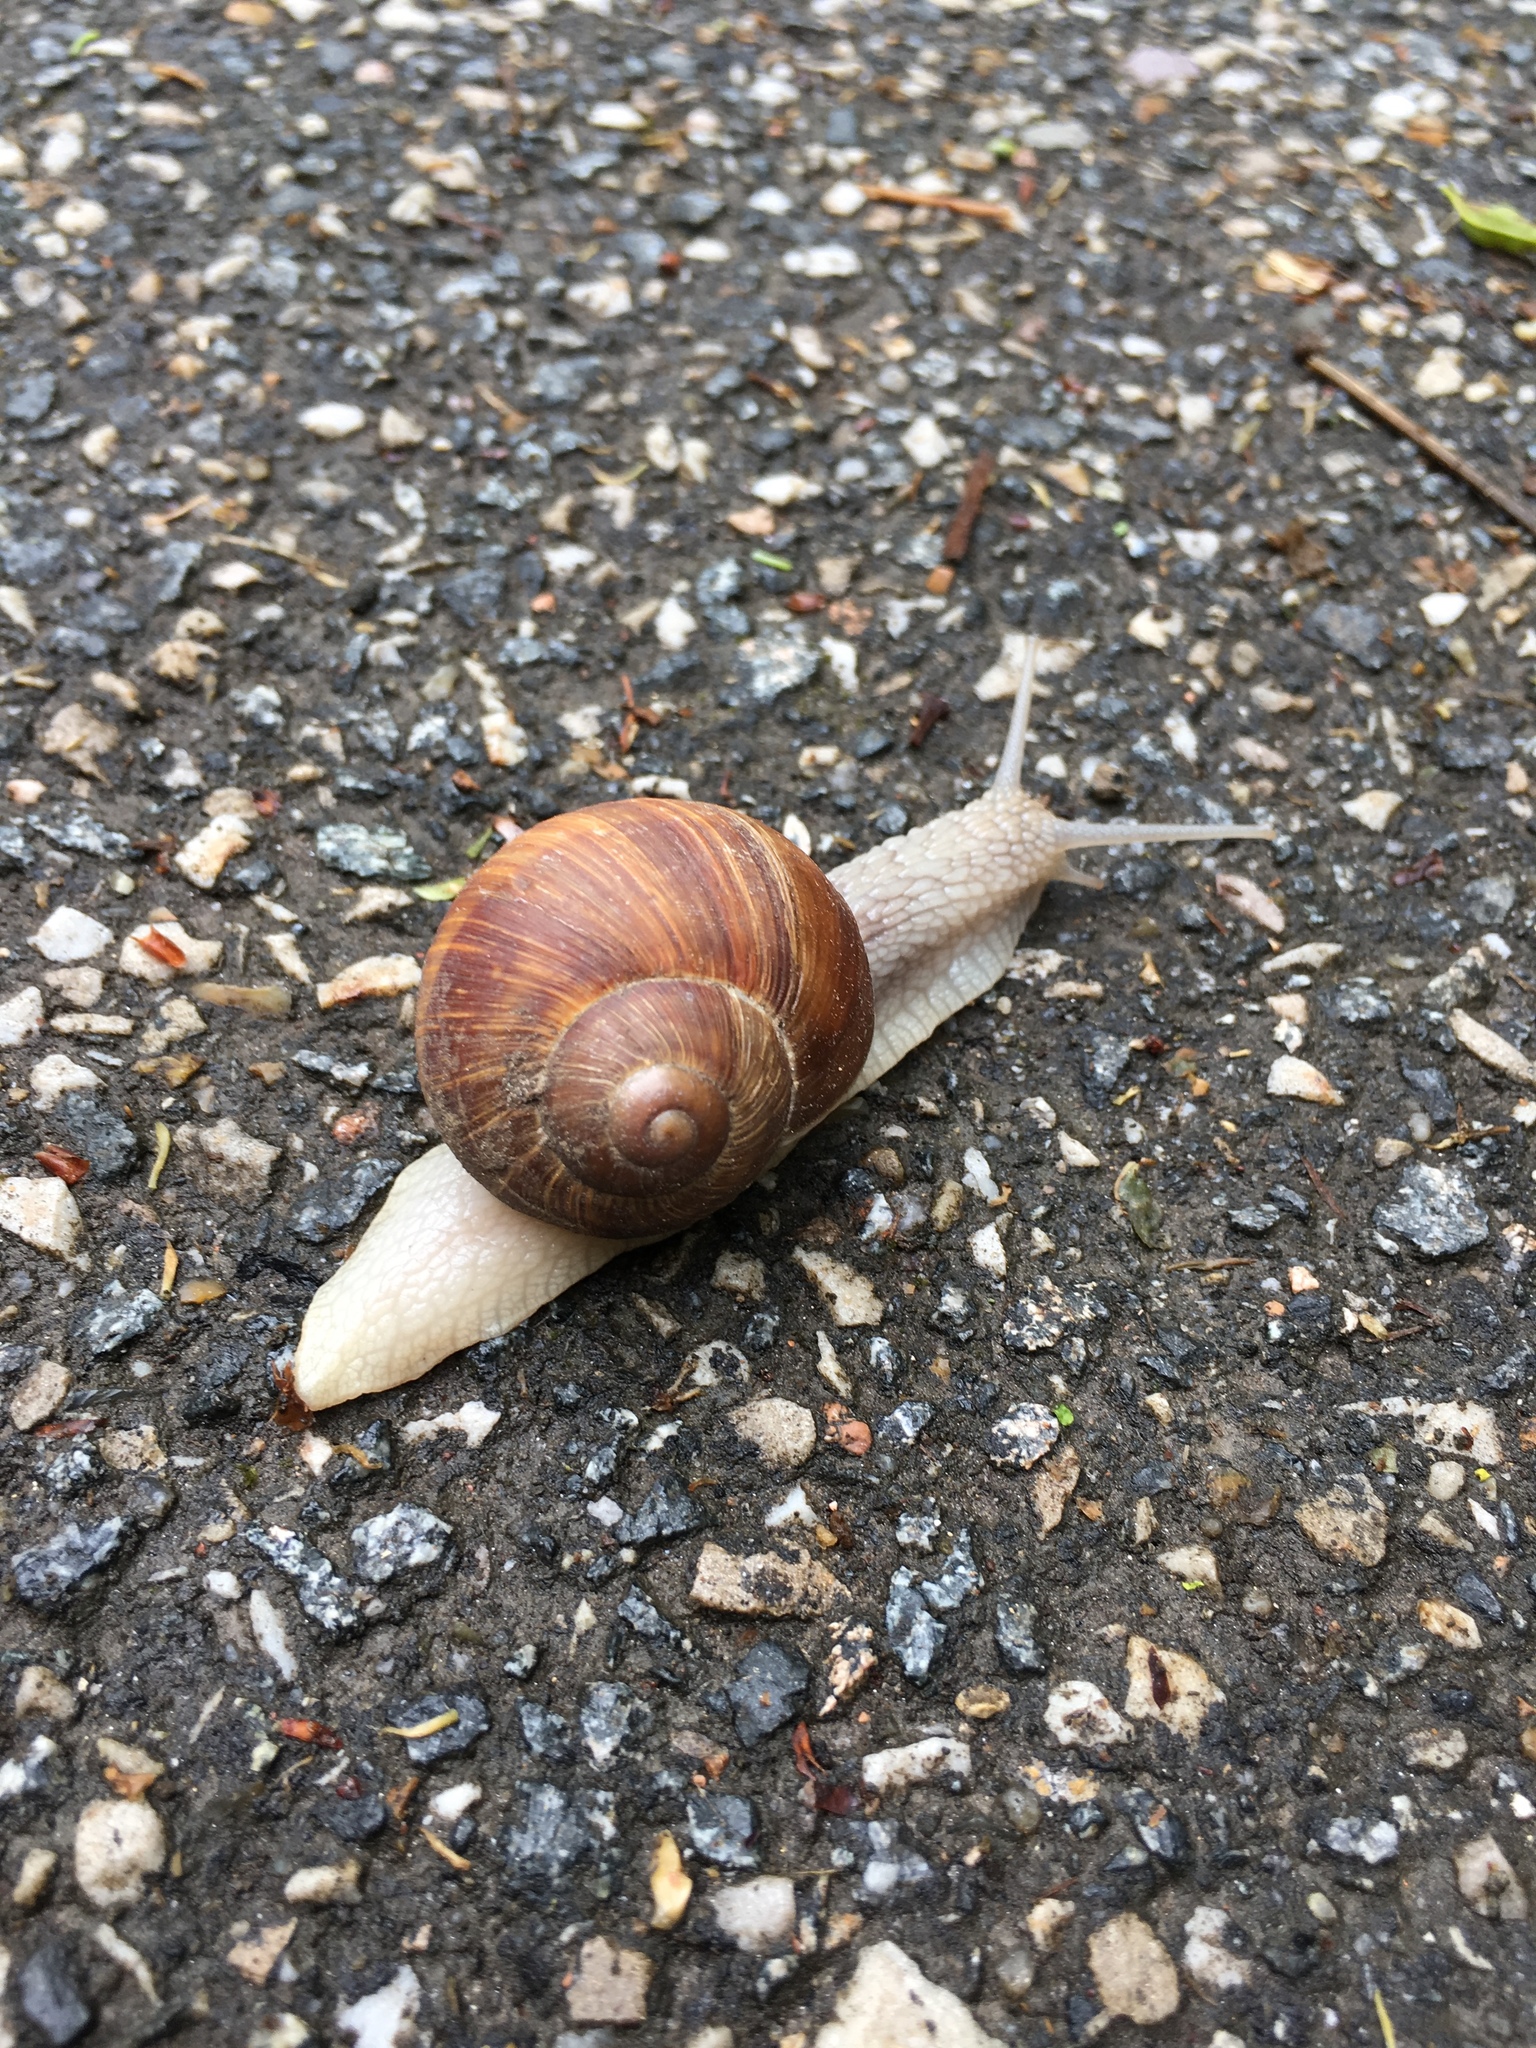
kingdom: Animalia
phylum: Mollusca
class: Gastropoda
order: Stylommatophora
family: Helicidae
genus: Helix
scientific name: Helix pomatia
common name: Roman snail
